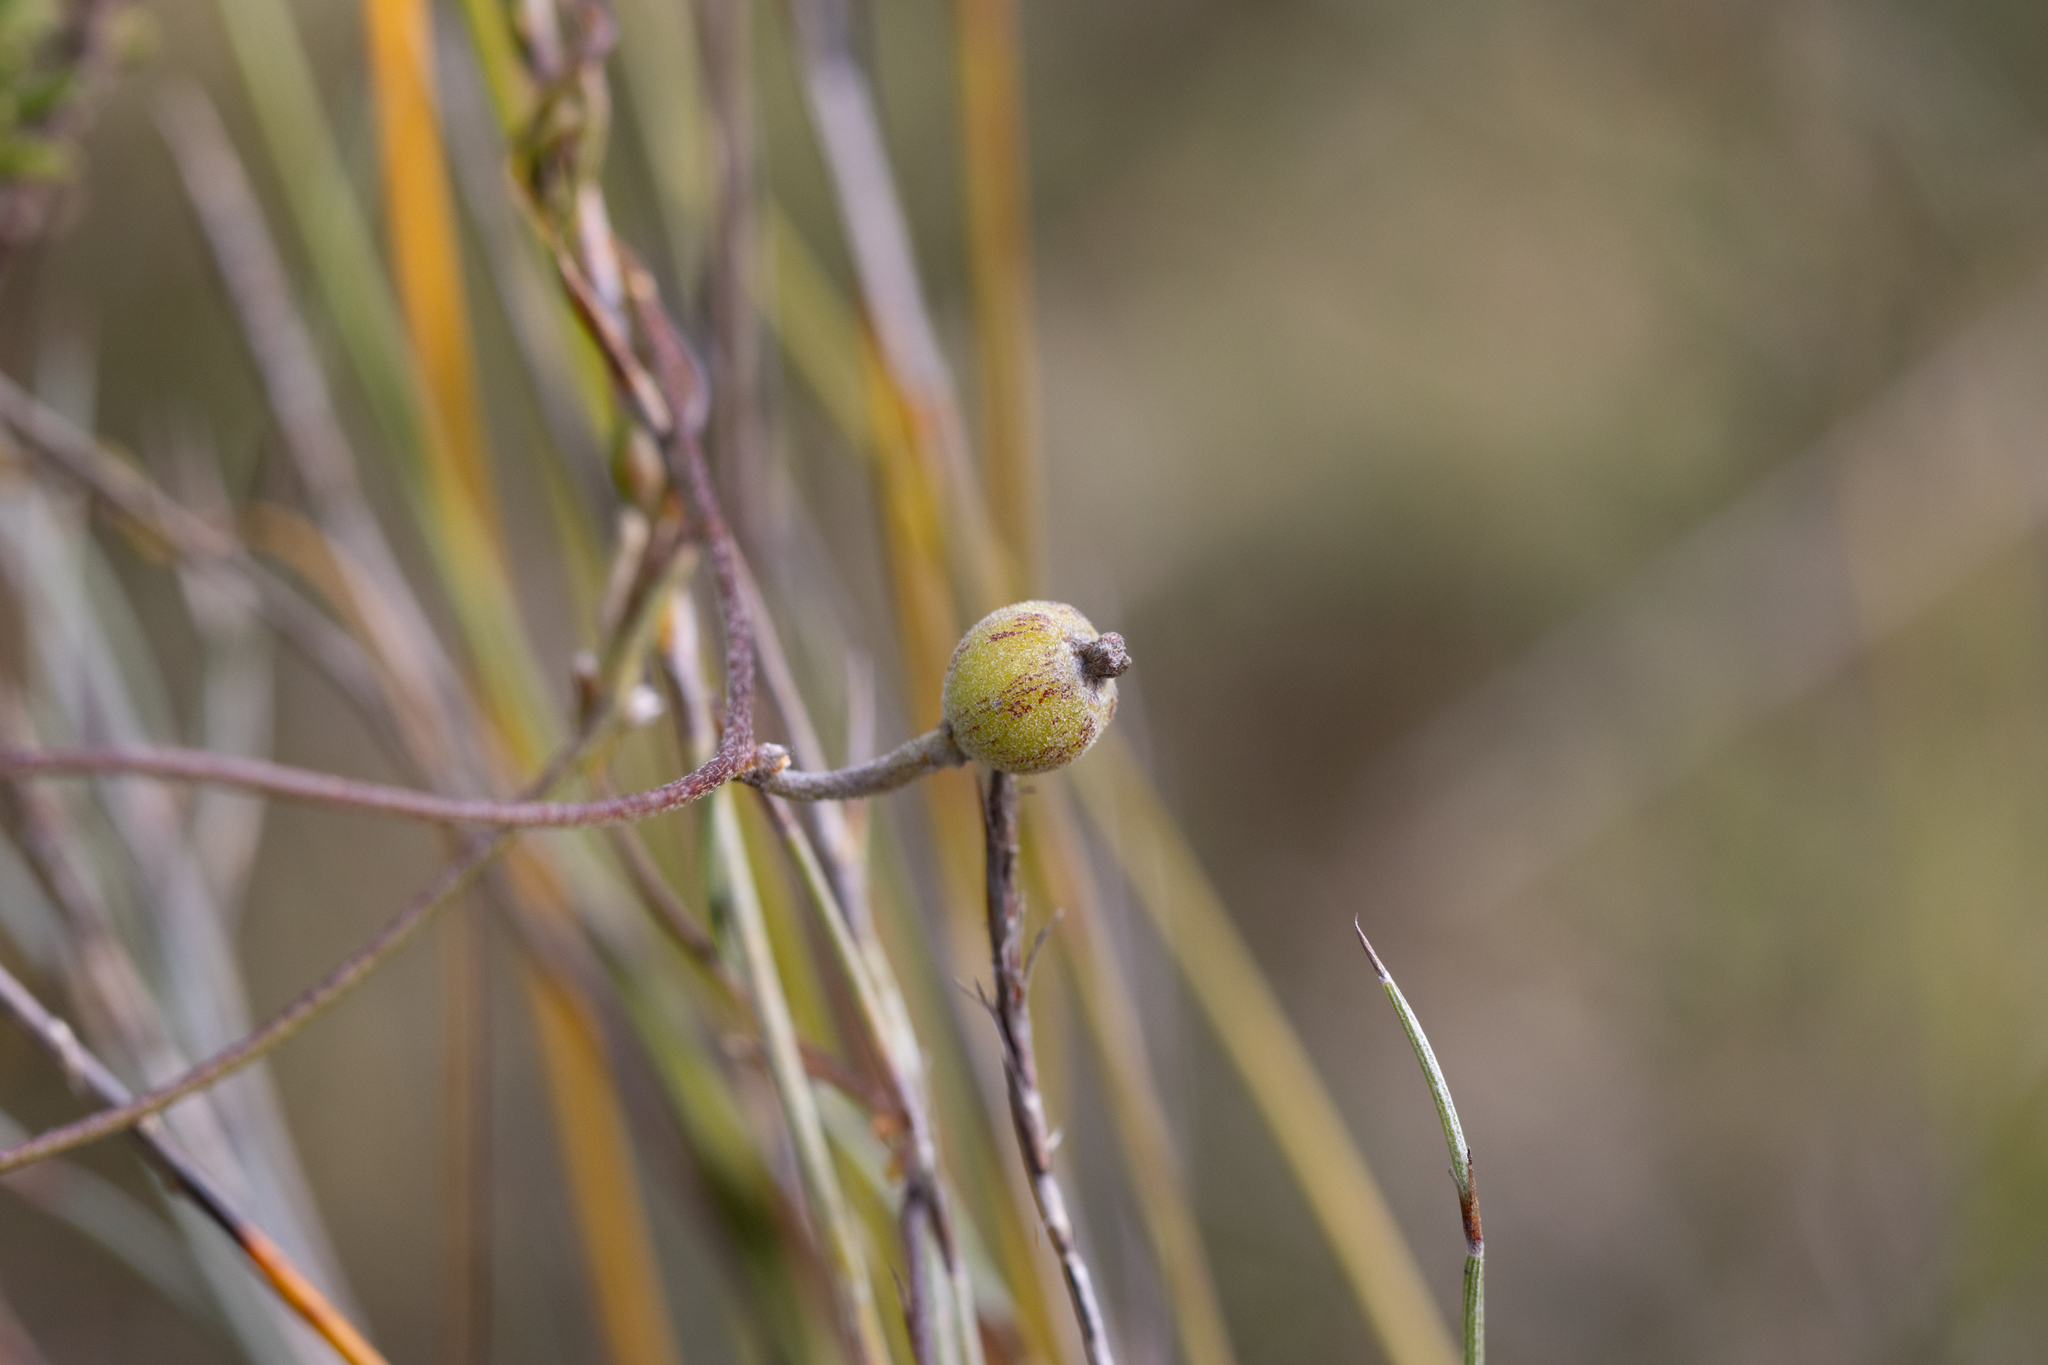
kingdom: Plantae
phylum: Tracheophyta
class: Magnoliopsida
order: Laurales
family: Lauraceae
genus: Cassytha
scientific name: Cassytha pubescens
